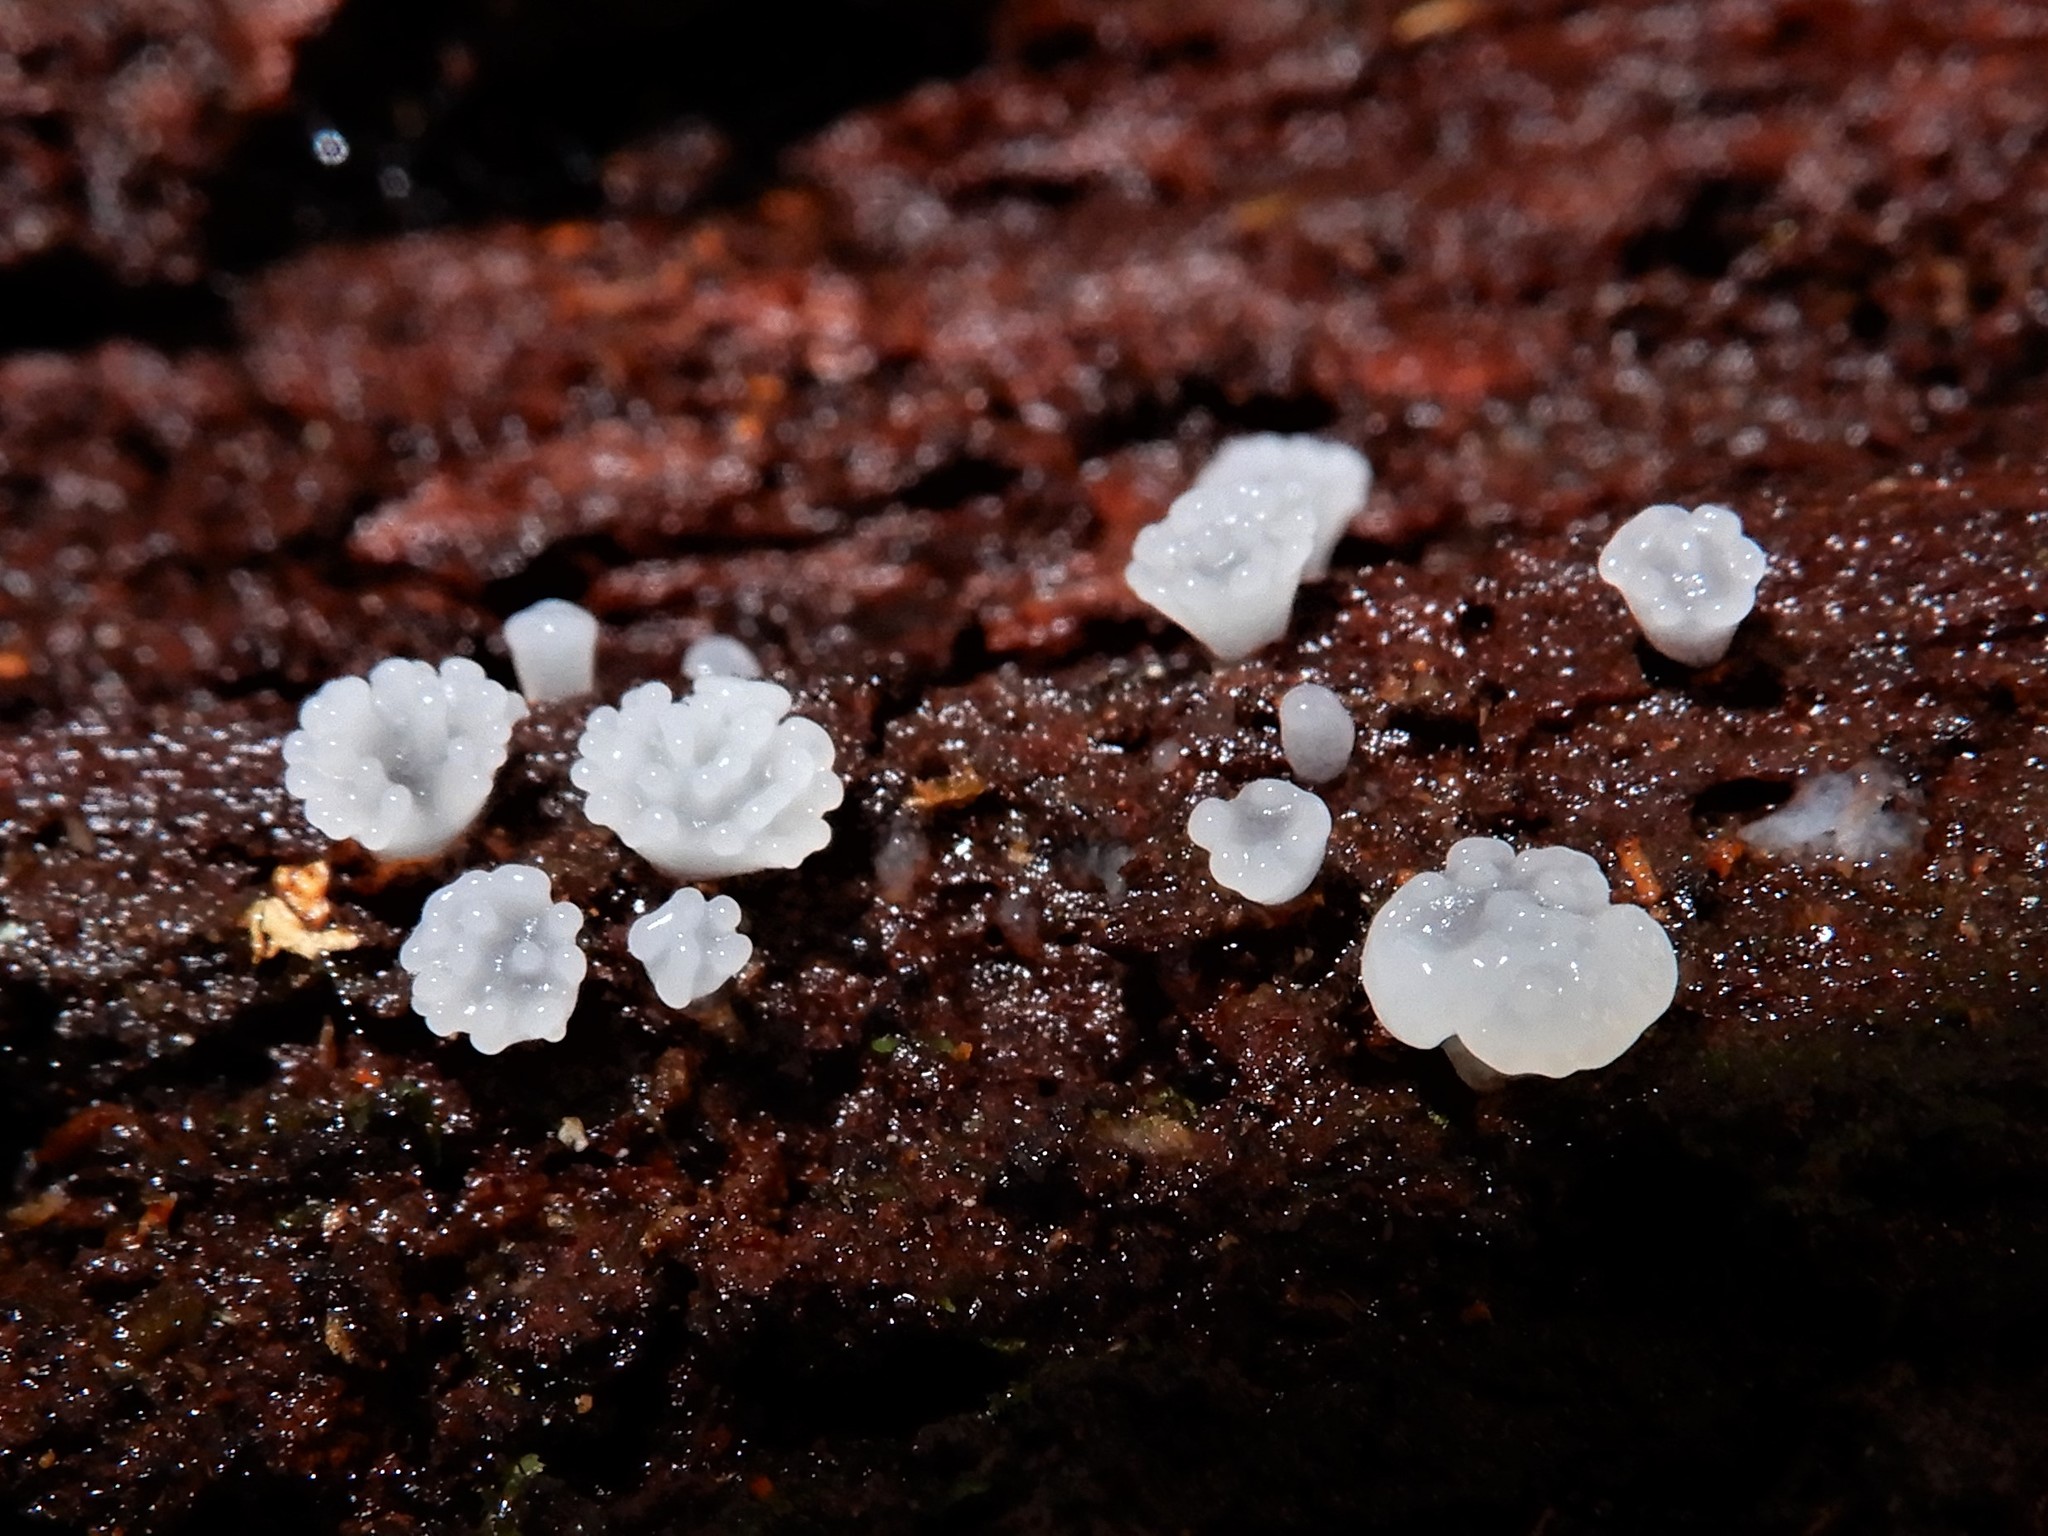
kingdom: Protozoa
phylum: Mycetozoa
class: Protosteliomycetes
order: Ceratiomyxales
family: Ceratiomyxaceae
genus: Ceratiomyxa
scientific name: Ceratiomyxa fruticulosa
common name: Honeycomb coral slime mold
